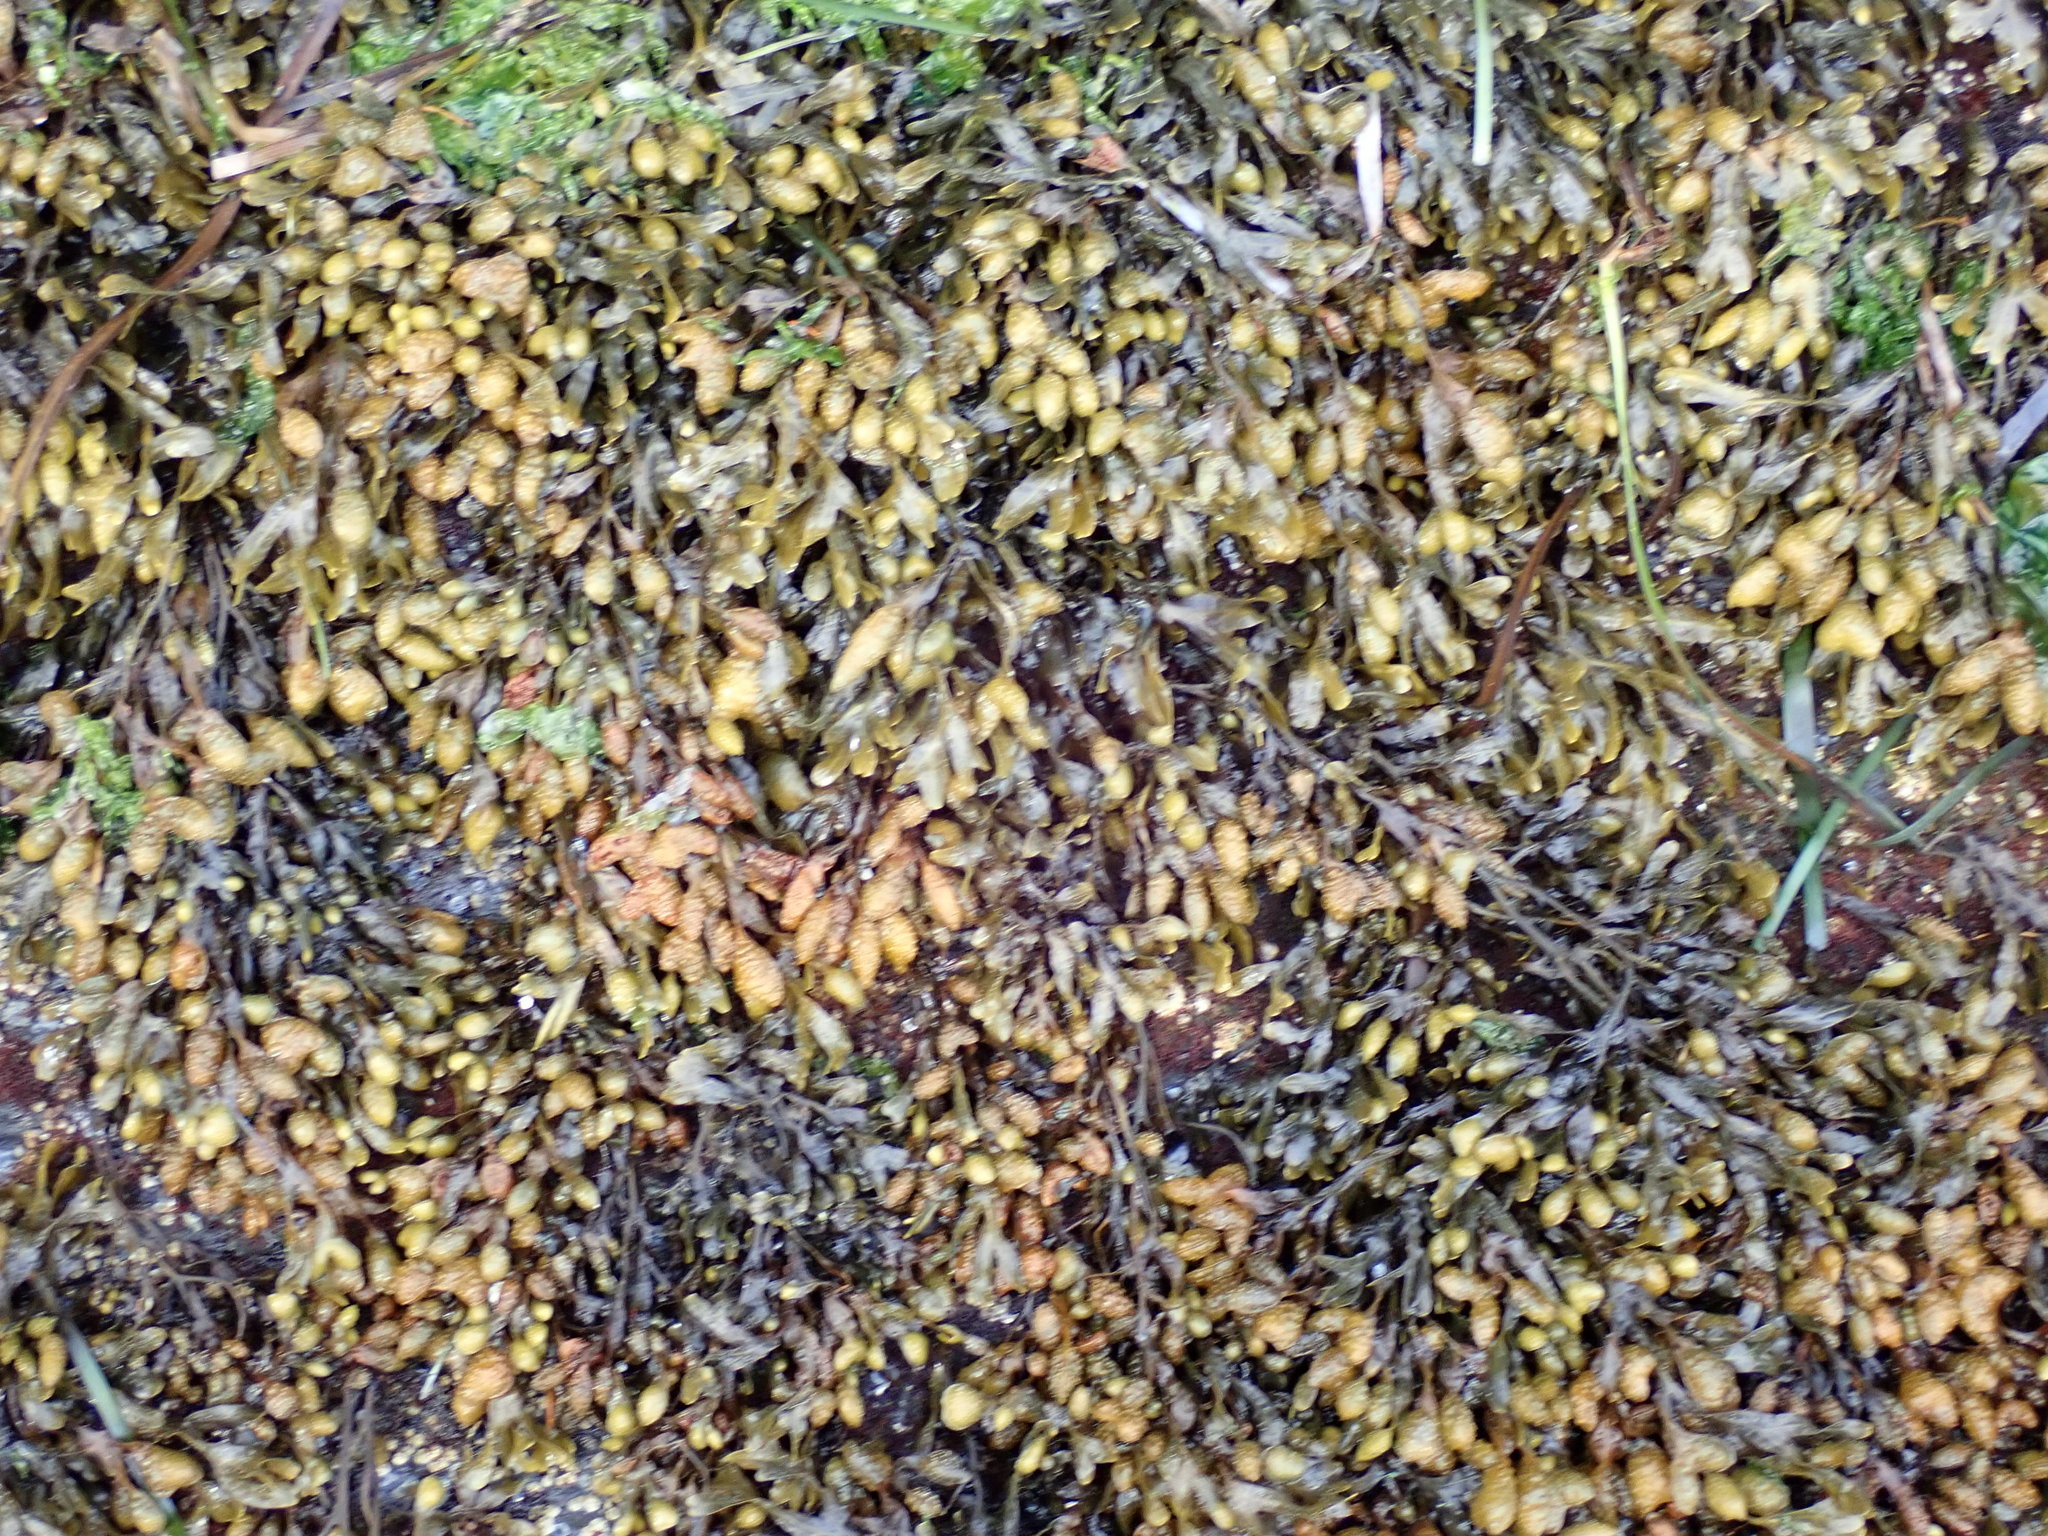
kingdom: Chromista
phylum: Ochrophyta
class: Phaeophyceae
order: Fucales
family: Fucaceae
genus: Fucus
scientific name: Fucus distichus
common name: Rockweed
